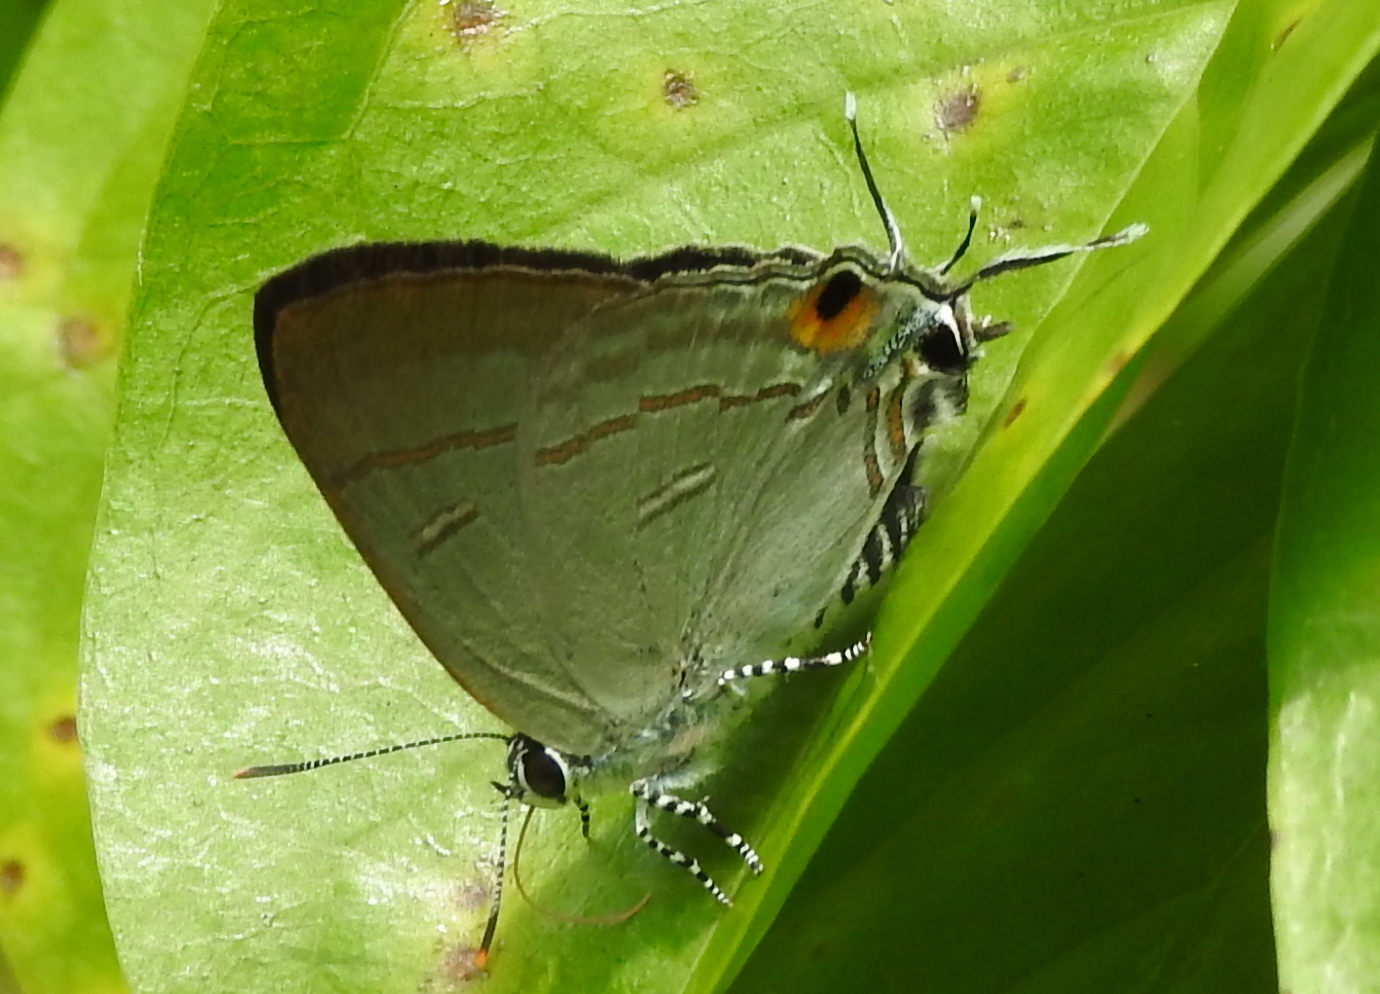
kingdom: Animalia
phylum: Arthropoda
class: Insecta
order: Lepidoptera
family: Lycaenidae
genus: Hypolycaena
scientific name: Hypolycaena erylus
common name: Common tit
